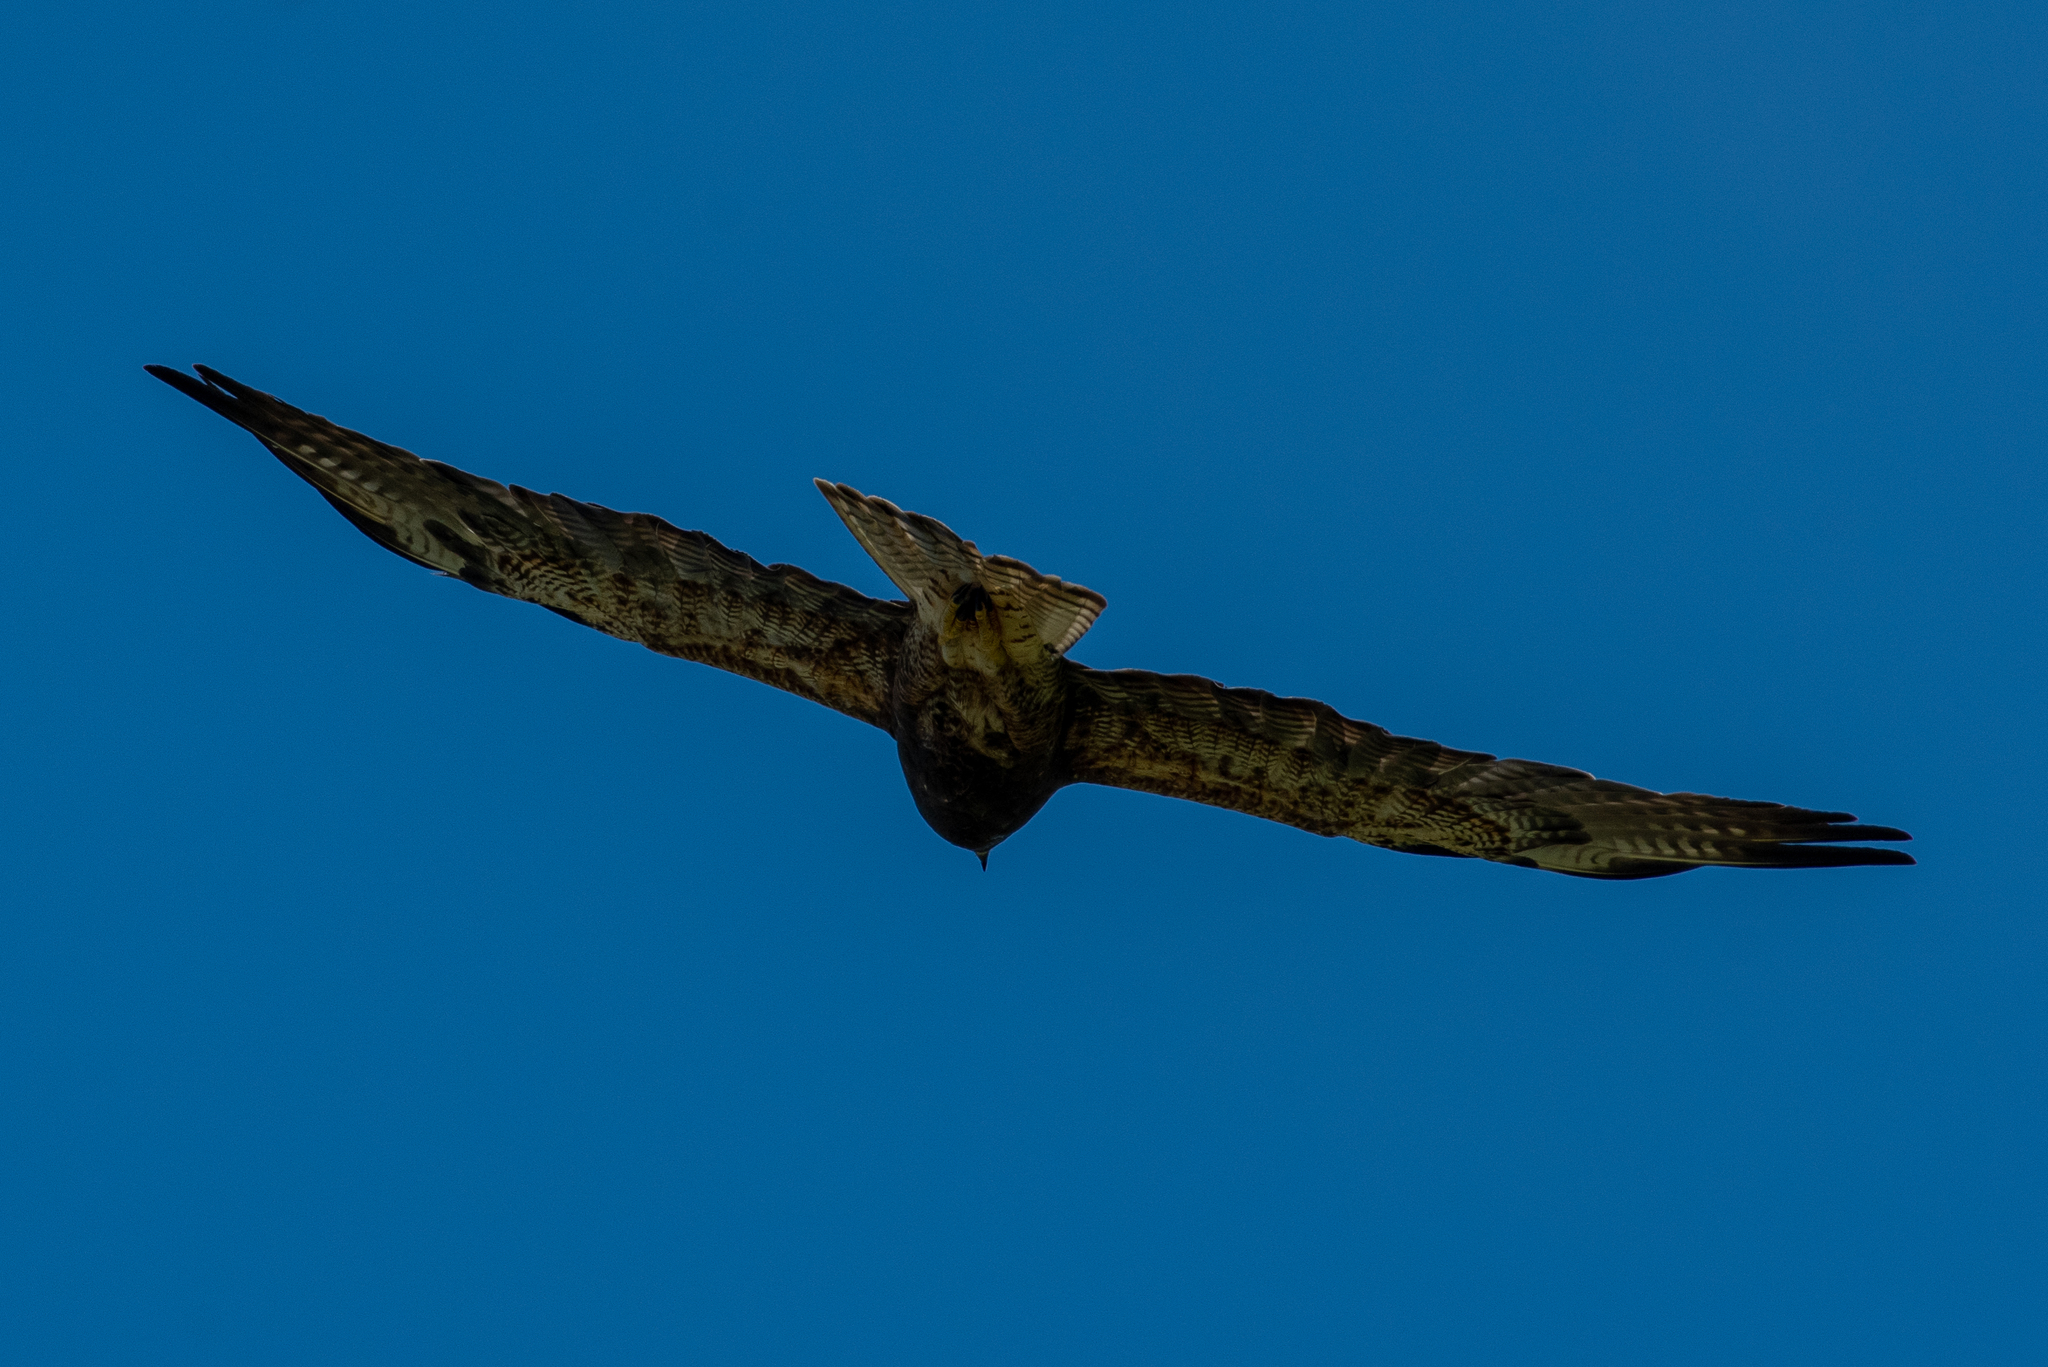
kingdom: Animalia
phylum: Chordata
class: Aves
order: Accipitriformes
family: Accipitridae
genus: Buteo
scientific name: Buteo swainsoni
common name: Swainson's hawk
